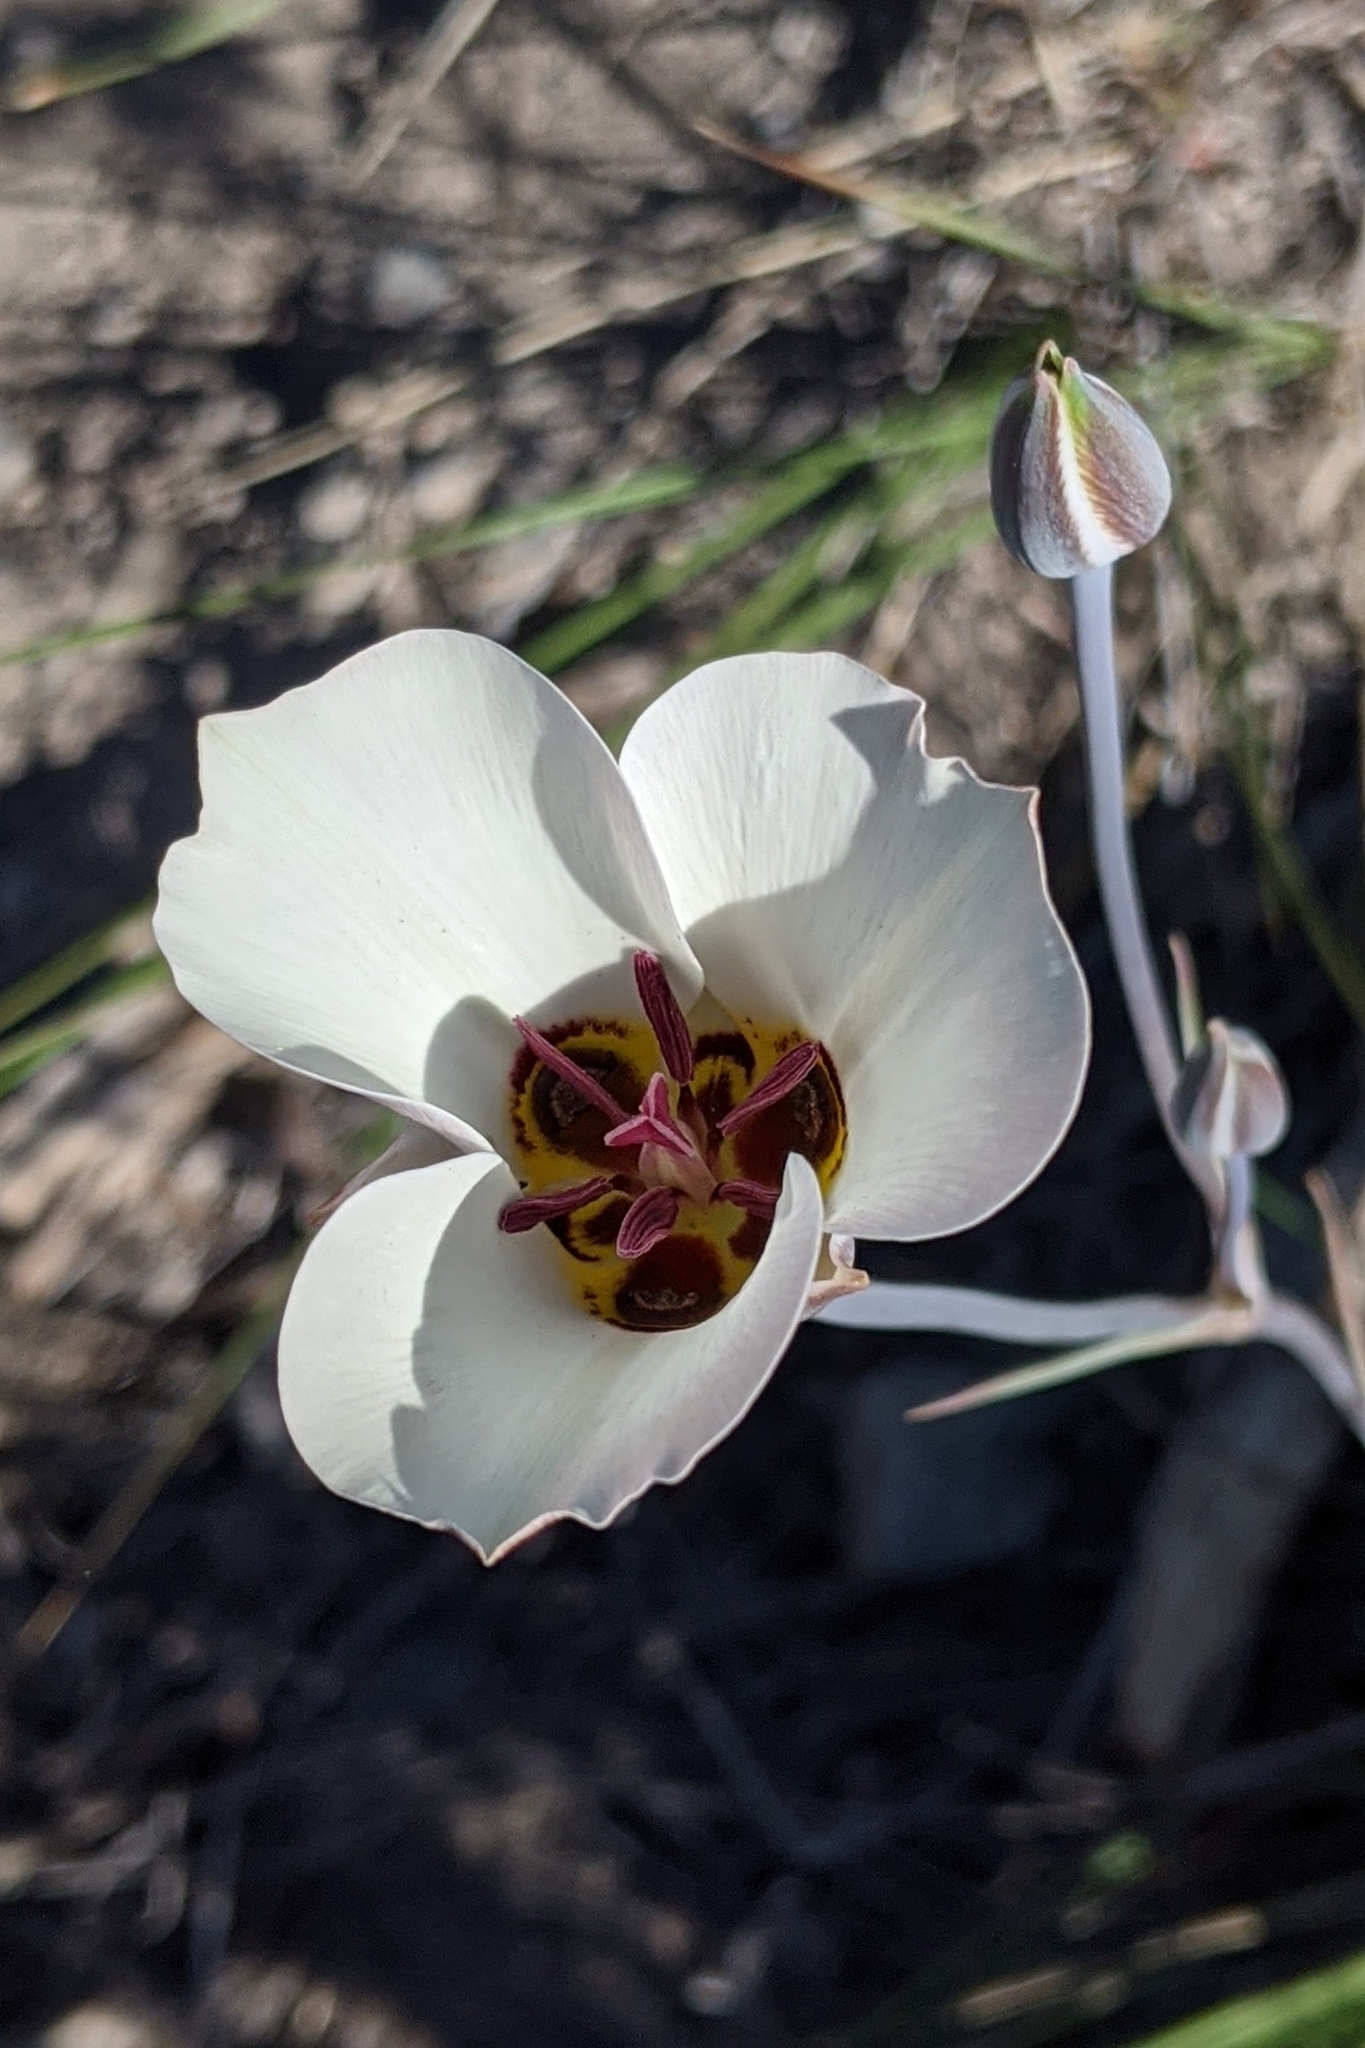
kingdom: Plantae
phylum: Tracheophyta
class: Liliopsida
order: Liliales
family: Liliaceae
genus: Calochortus
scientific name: Calochortus bruneaunis
